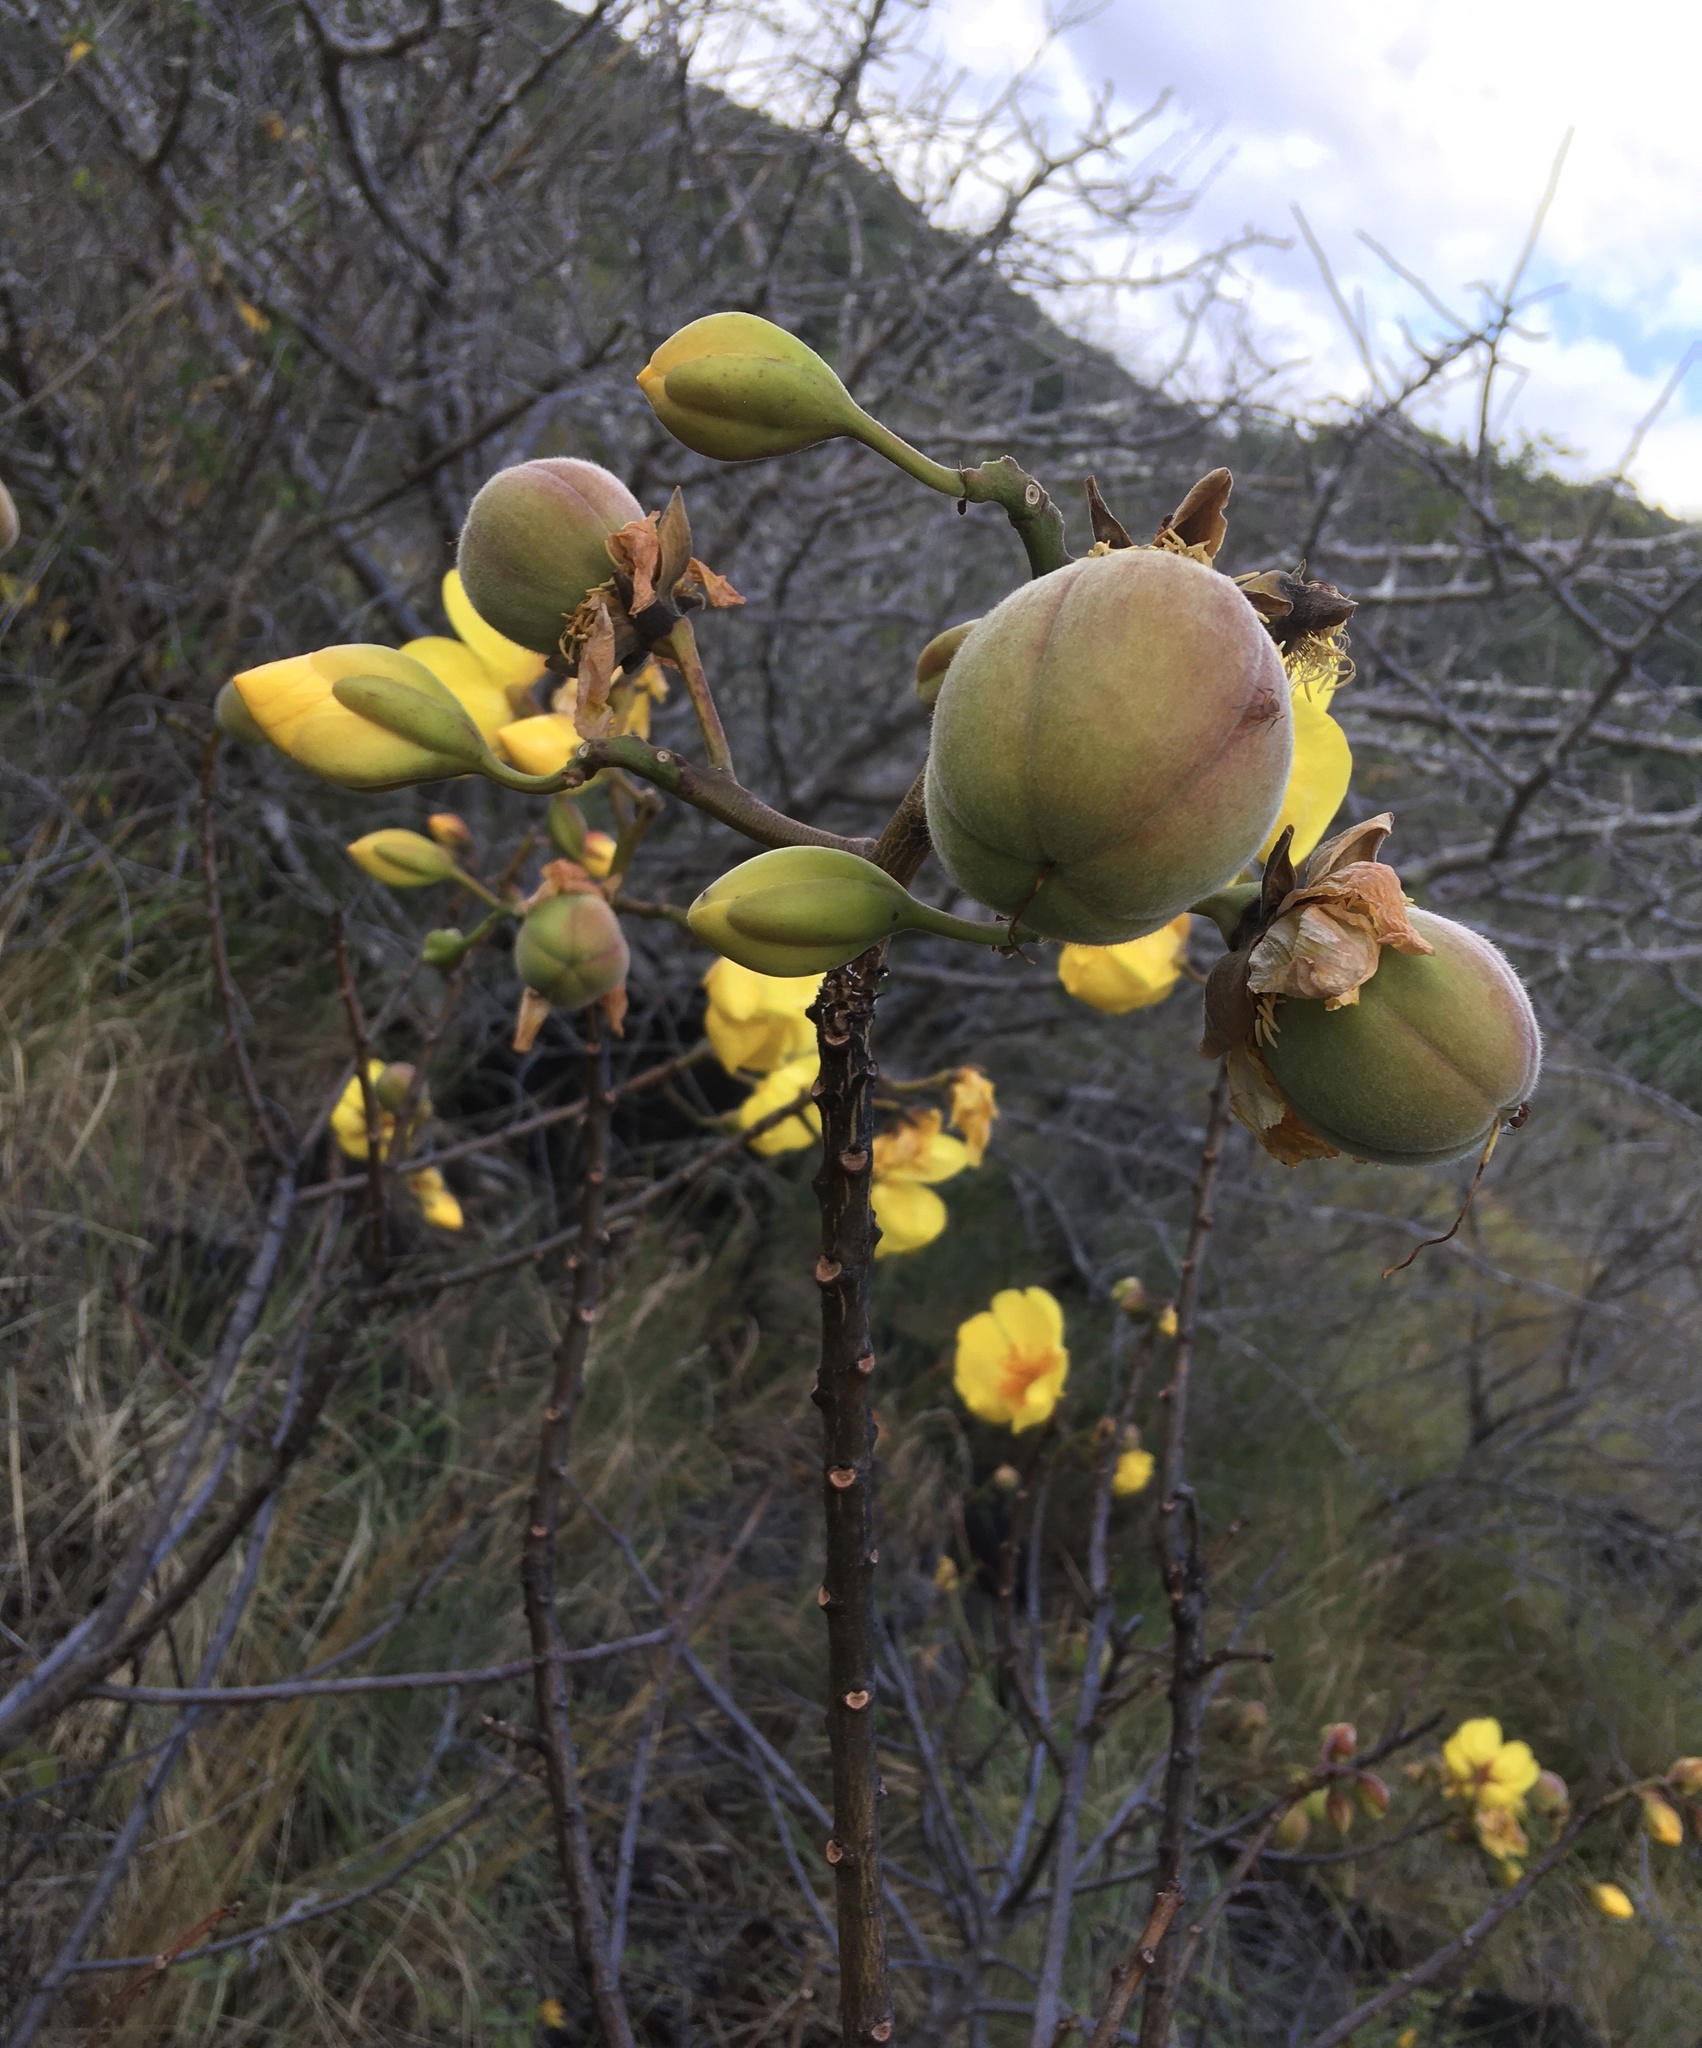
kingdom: Plantae
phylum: Tracheophyta
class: Magnoliopsida
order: Malvales
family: Cochlospermaceae
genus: Cochlospermum
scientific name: Cochlospermum vitifolium
